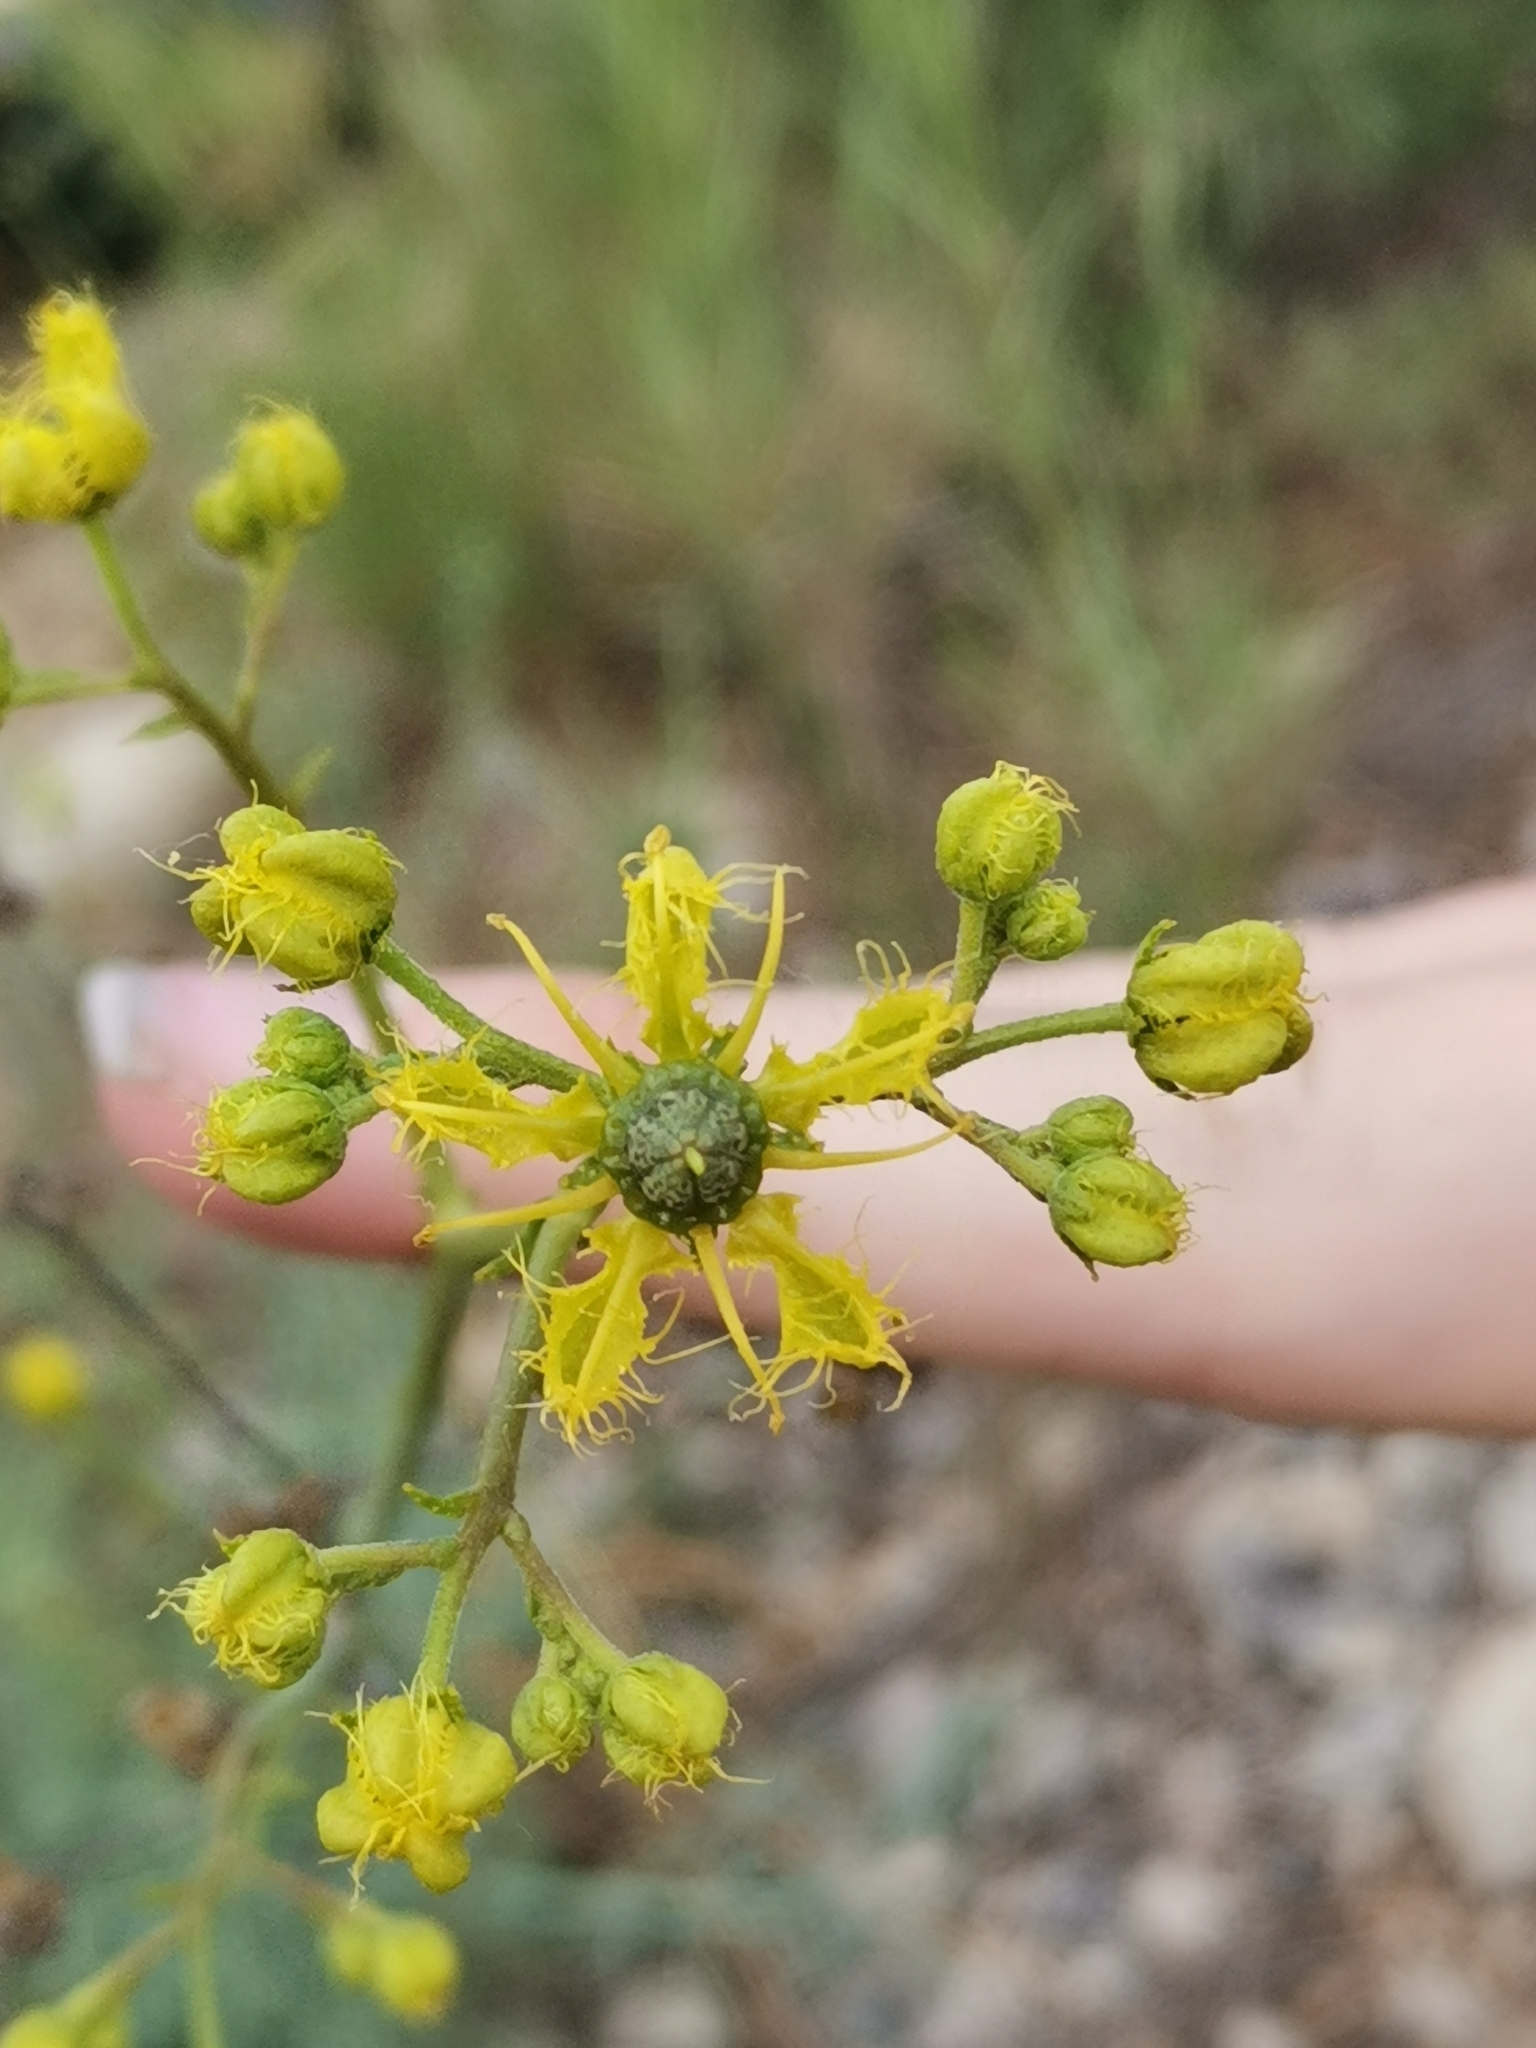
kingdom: Plantae
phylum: Tracheophyta
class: Magnoliopsida
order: Sapindales
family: Rutaceae
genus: Ruta
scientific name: Ruta angustifolia
